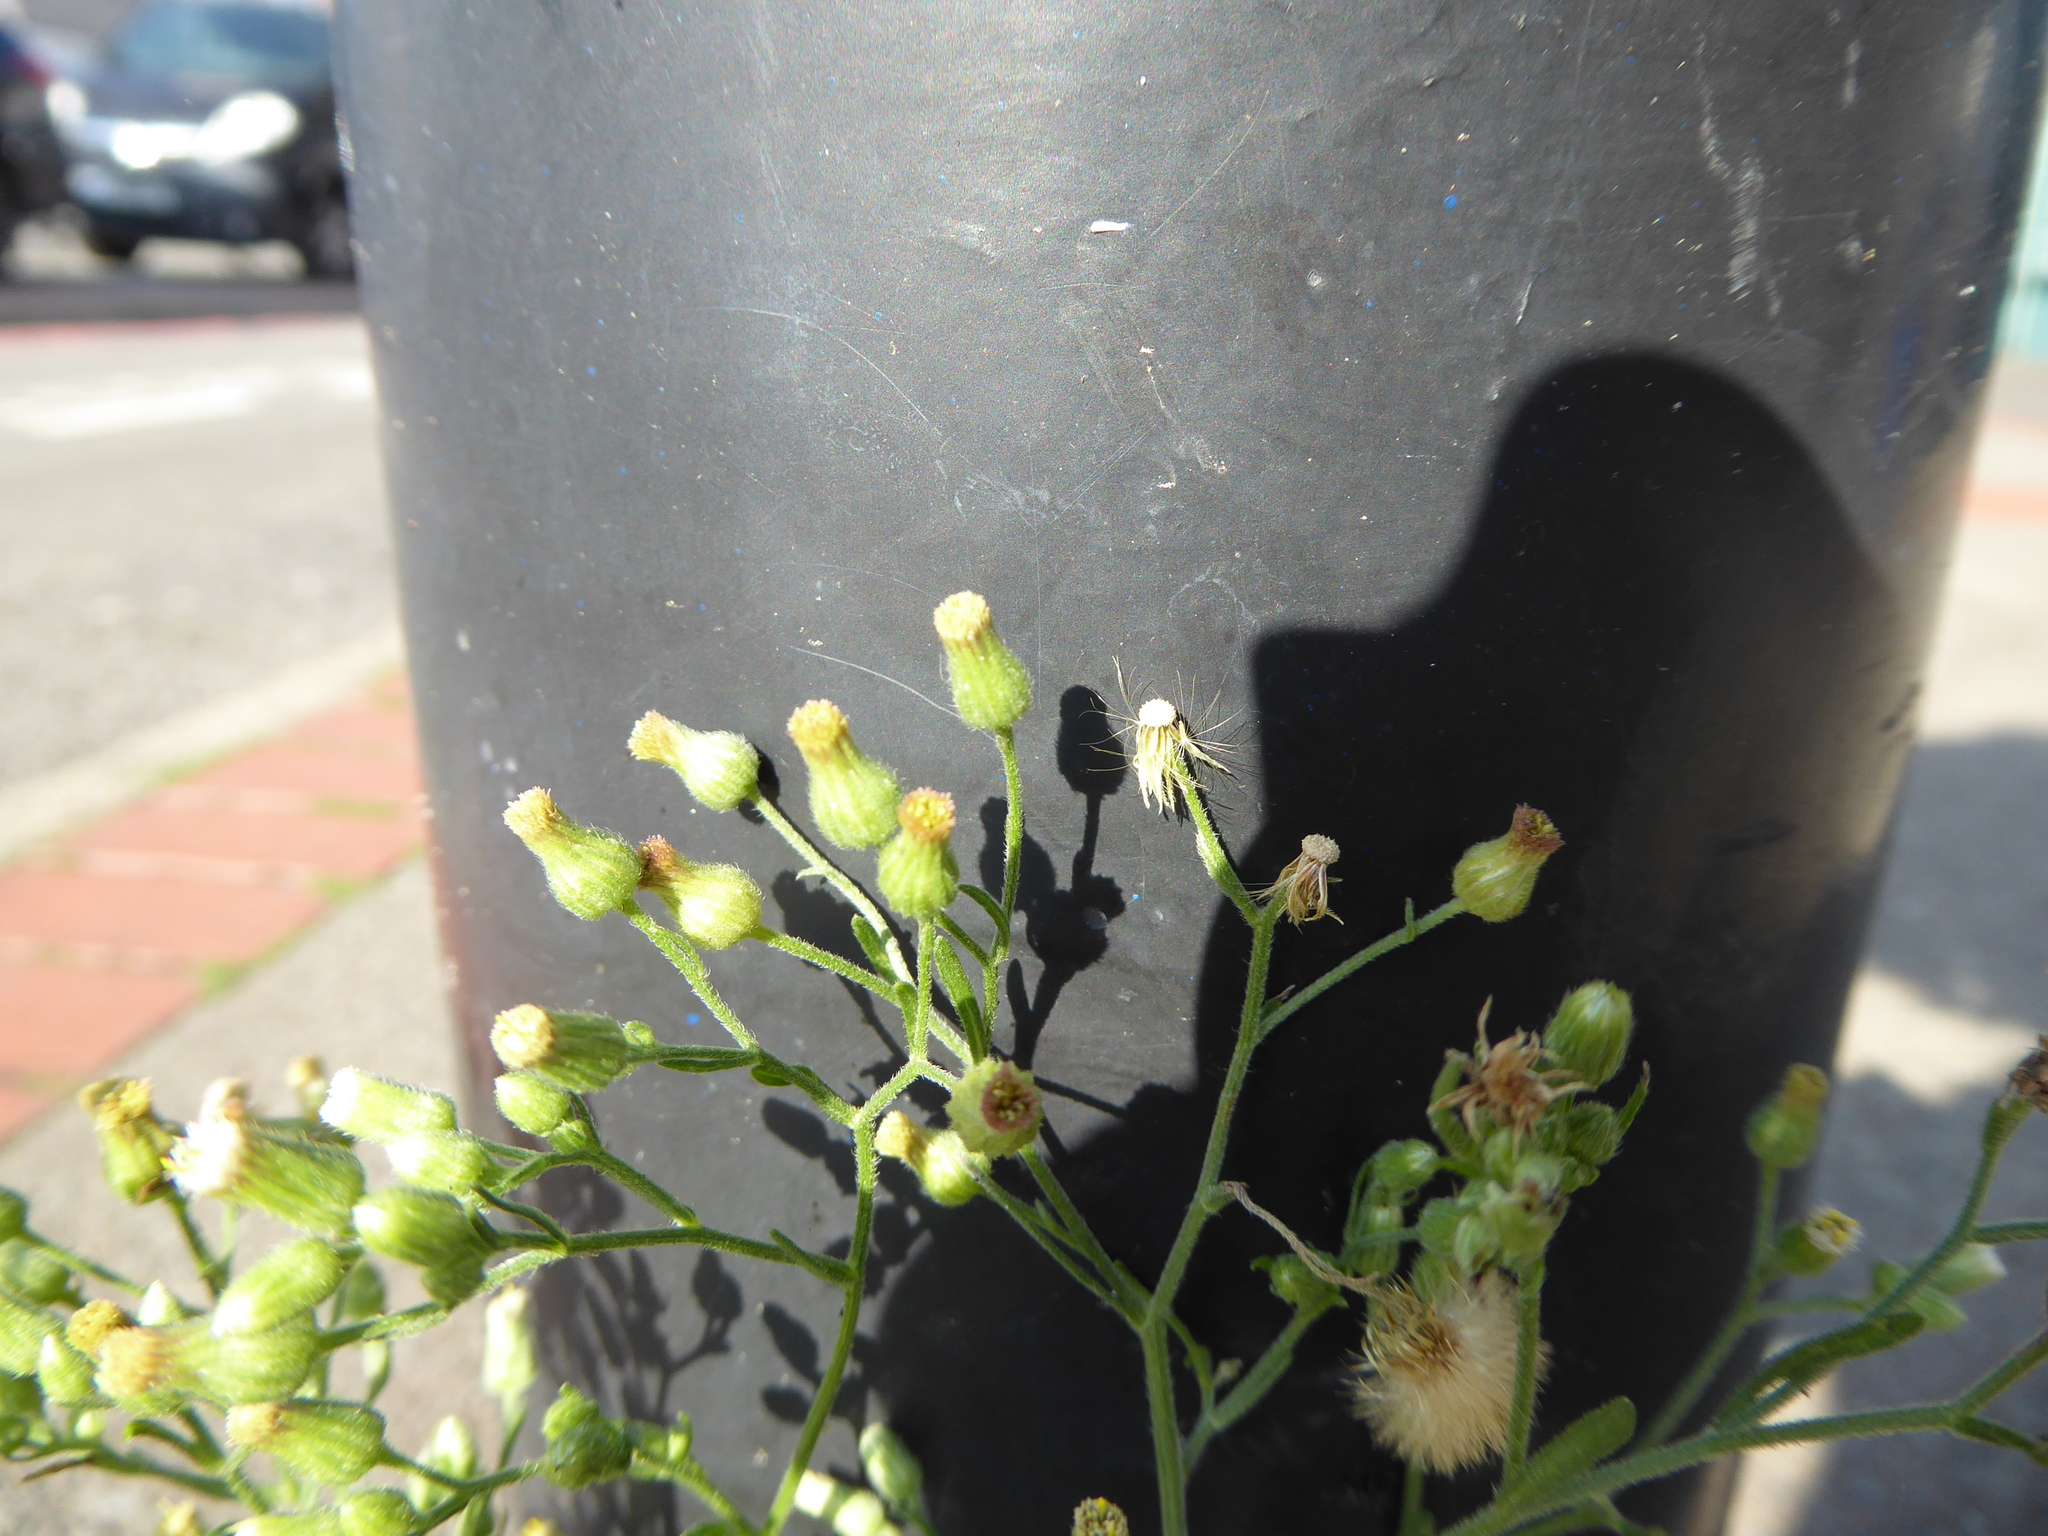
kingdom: Plantae
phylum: Tracheophyta
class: Magnoliopsida
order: Asterales
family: Asteraceae
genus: Erigeron
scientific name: Erigeron sumatrensis
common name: Daisy
